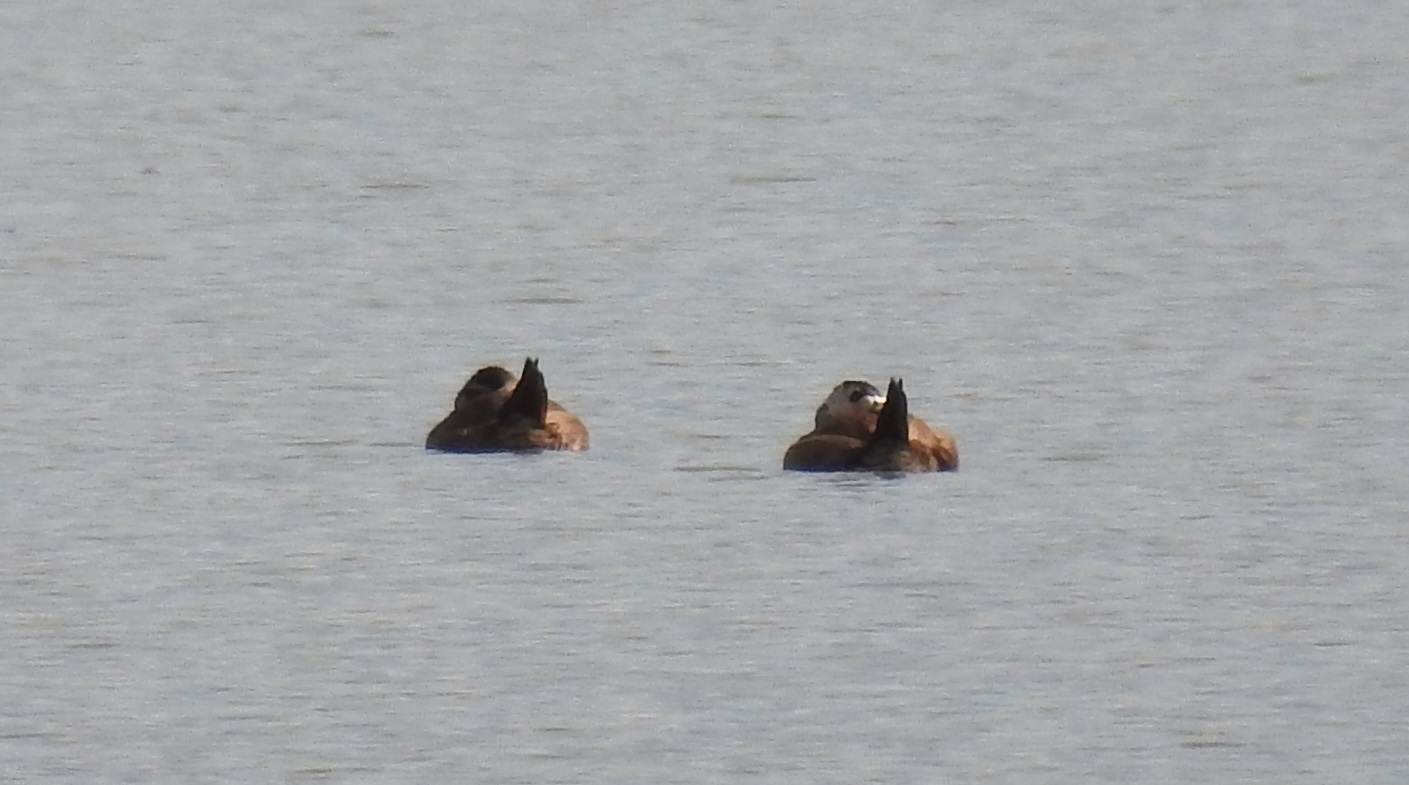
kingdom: Animalia
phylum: Chordata
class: Aves
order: Anseriformes
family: Anatidae
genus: Oxyura
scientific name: Oxyura leucocephala
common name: White-headed duck
